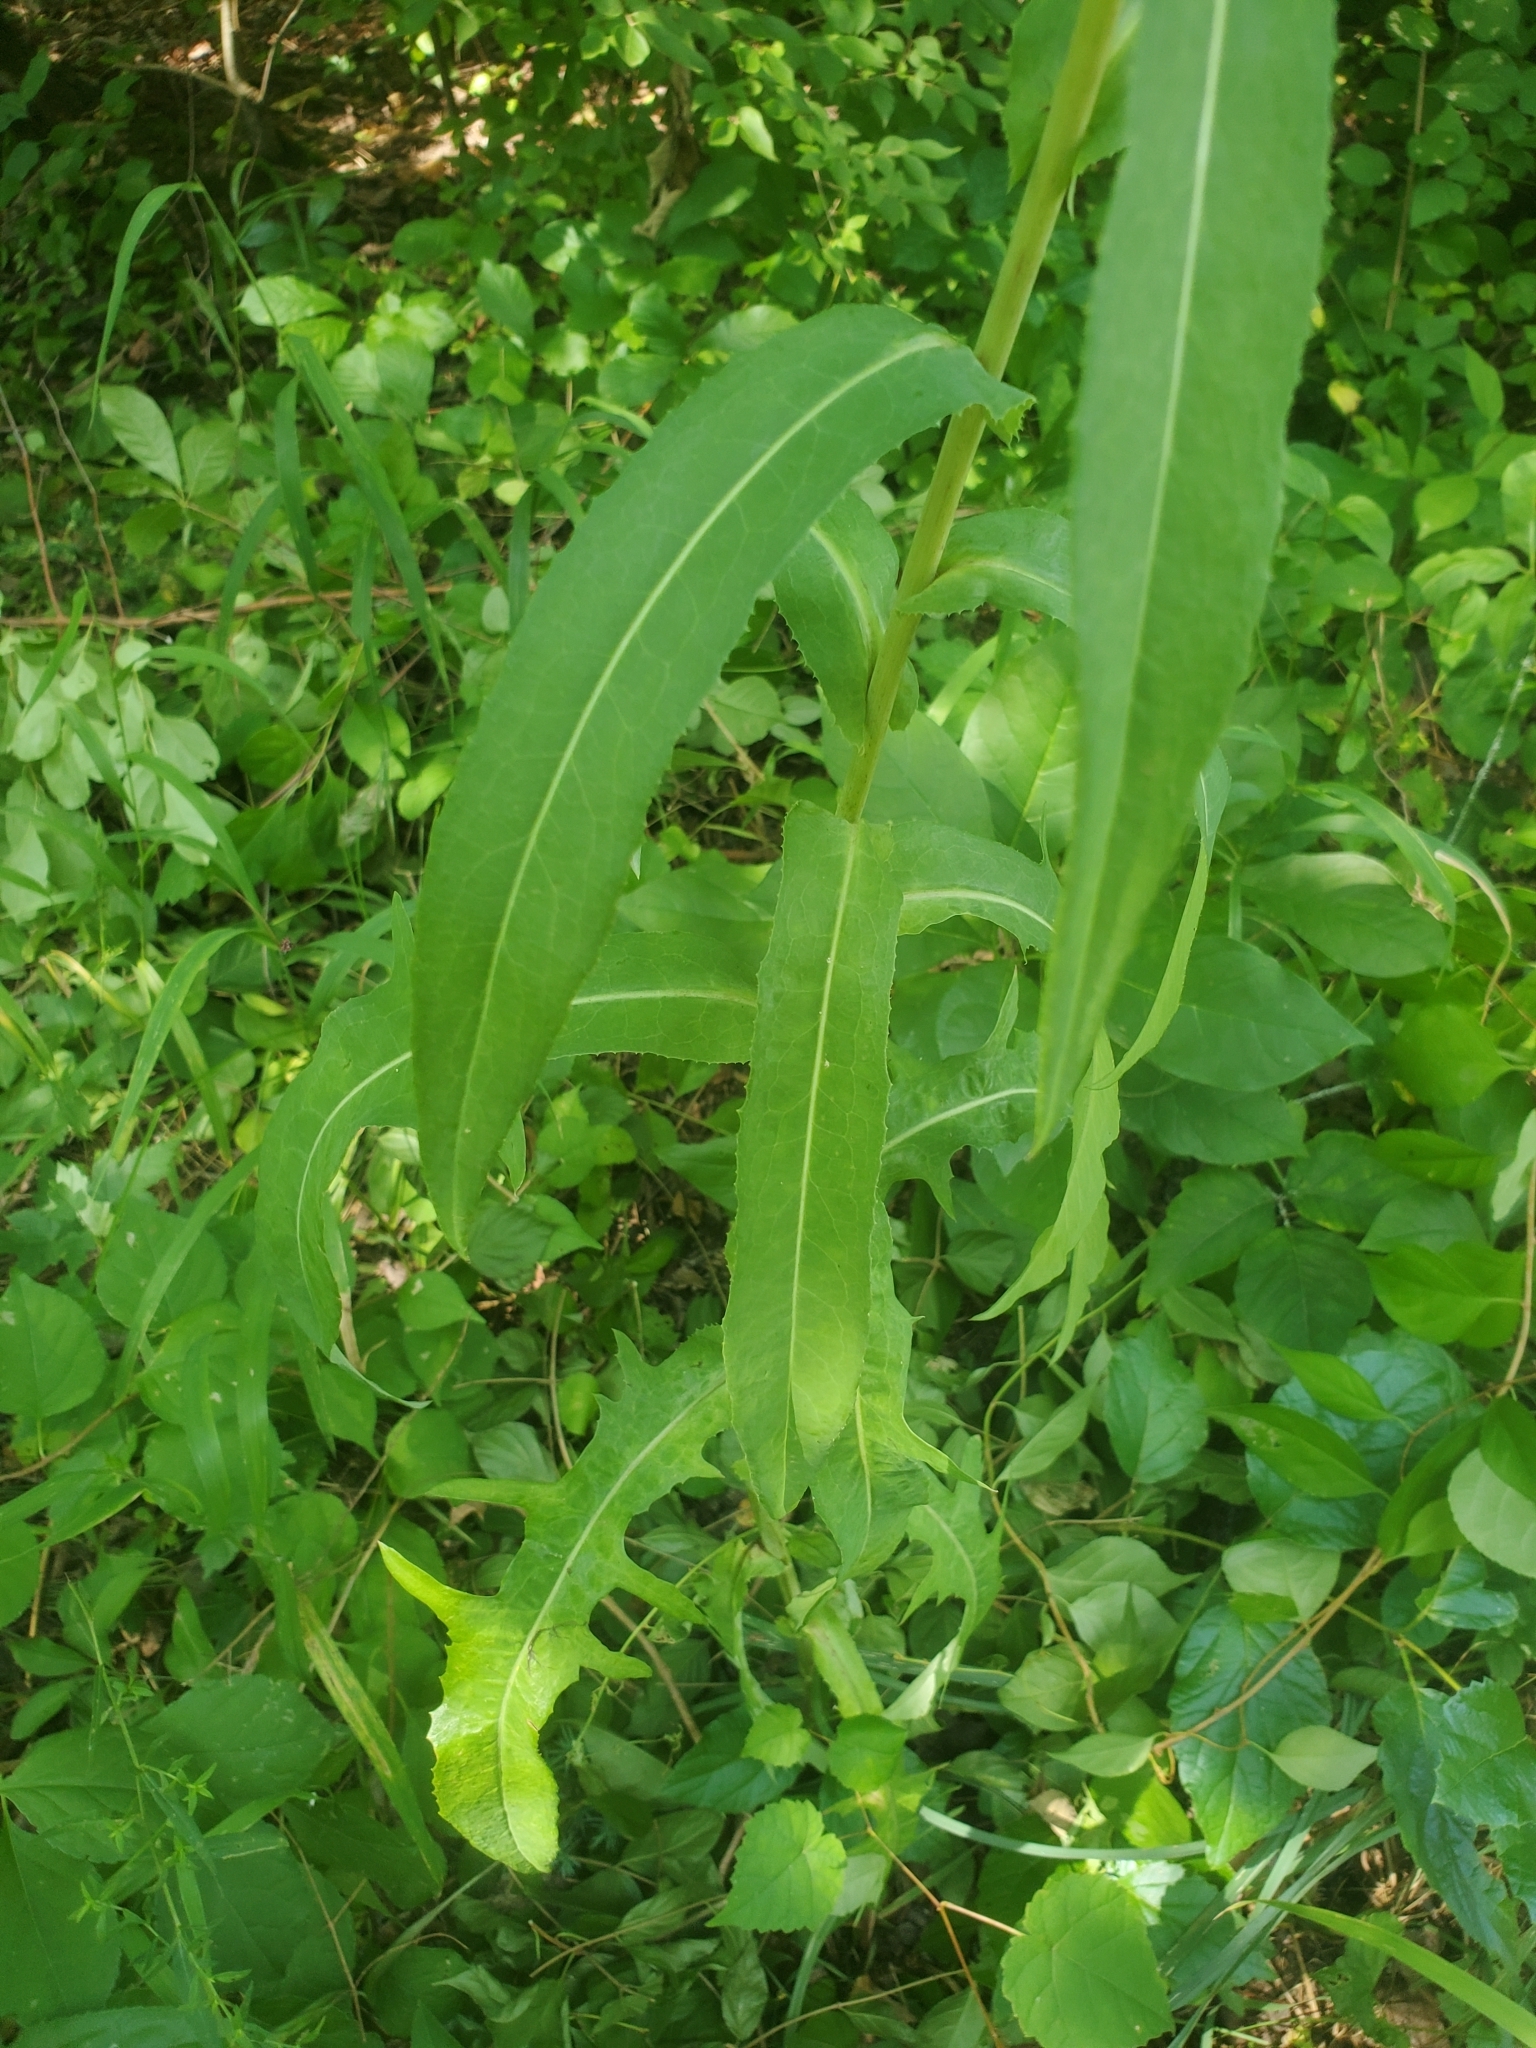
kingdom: Plantae
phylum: Tracheophyta
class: Magnoliopsida
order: Asterales
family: Asteraceae
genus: Lactuca
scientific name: Lactuca canadensis
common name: Canada lettuce
